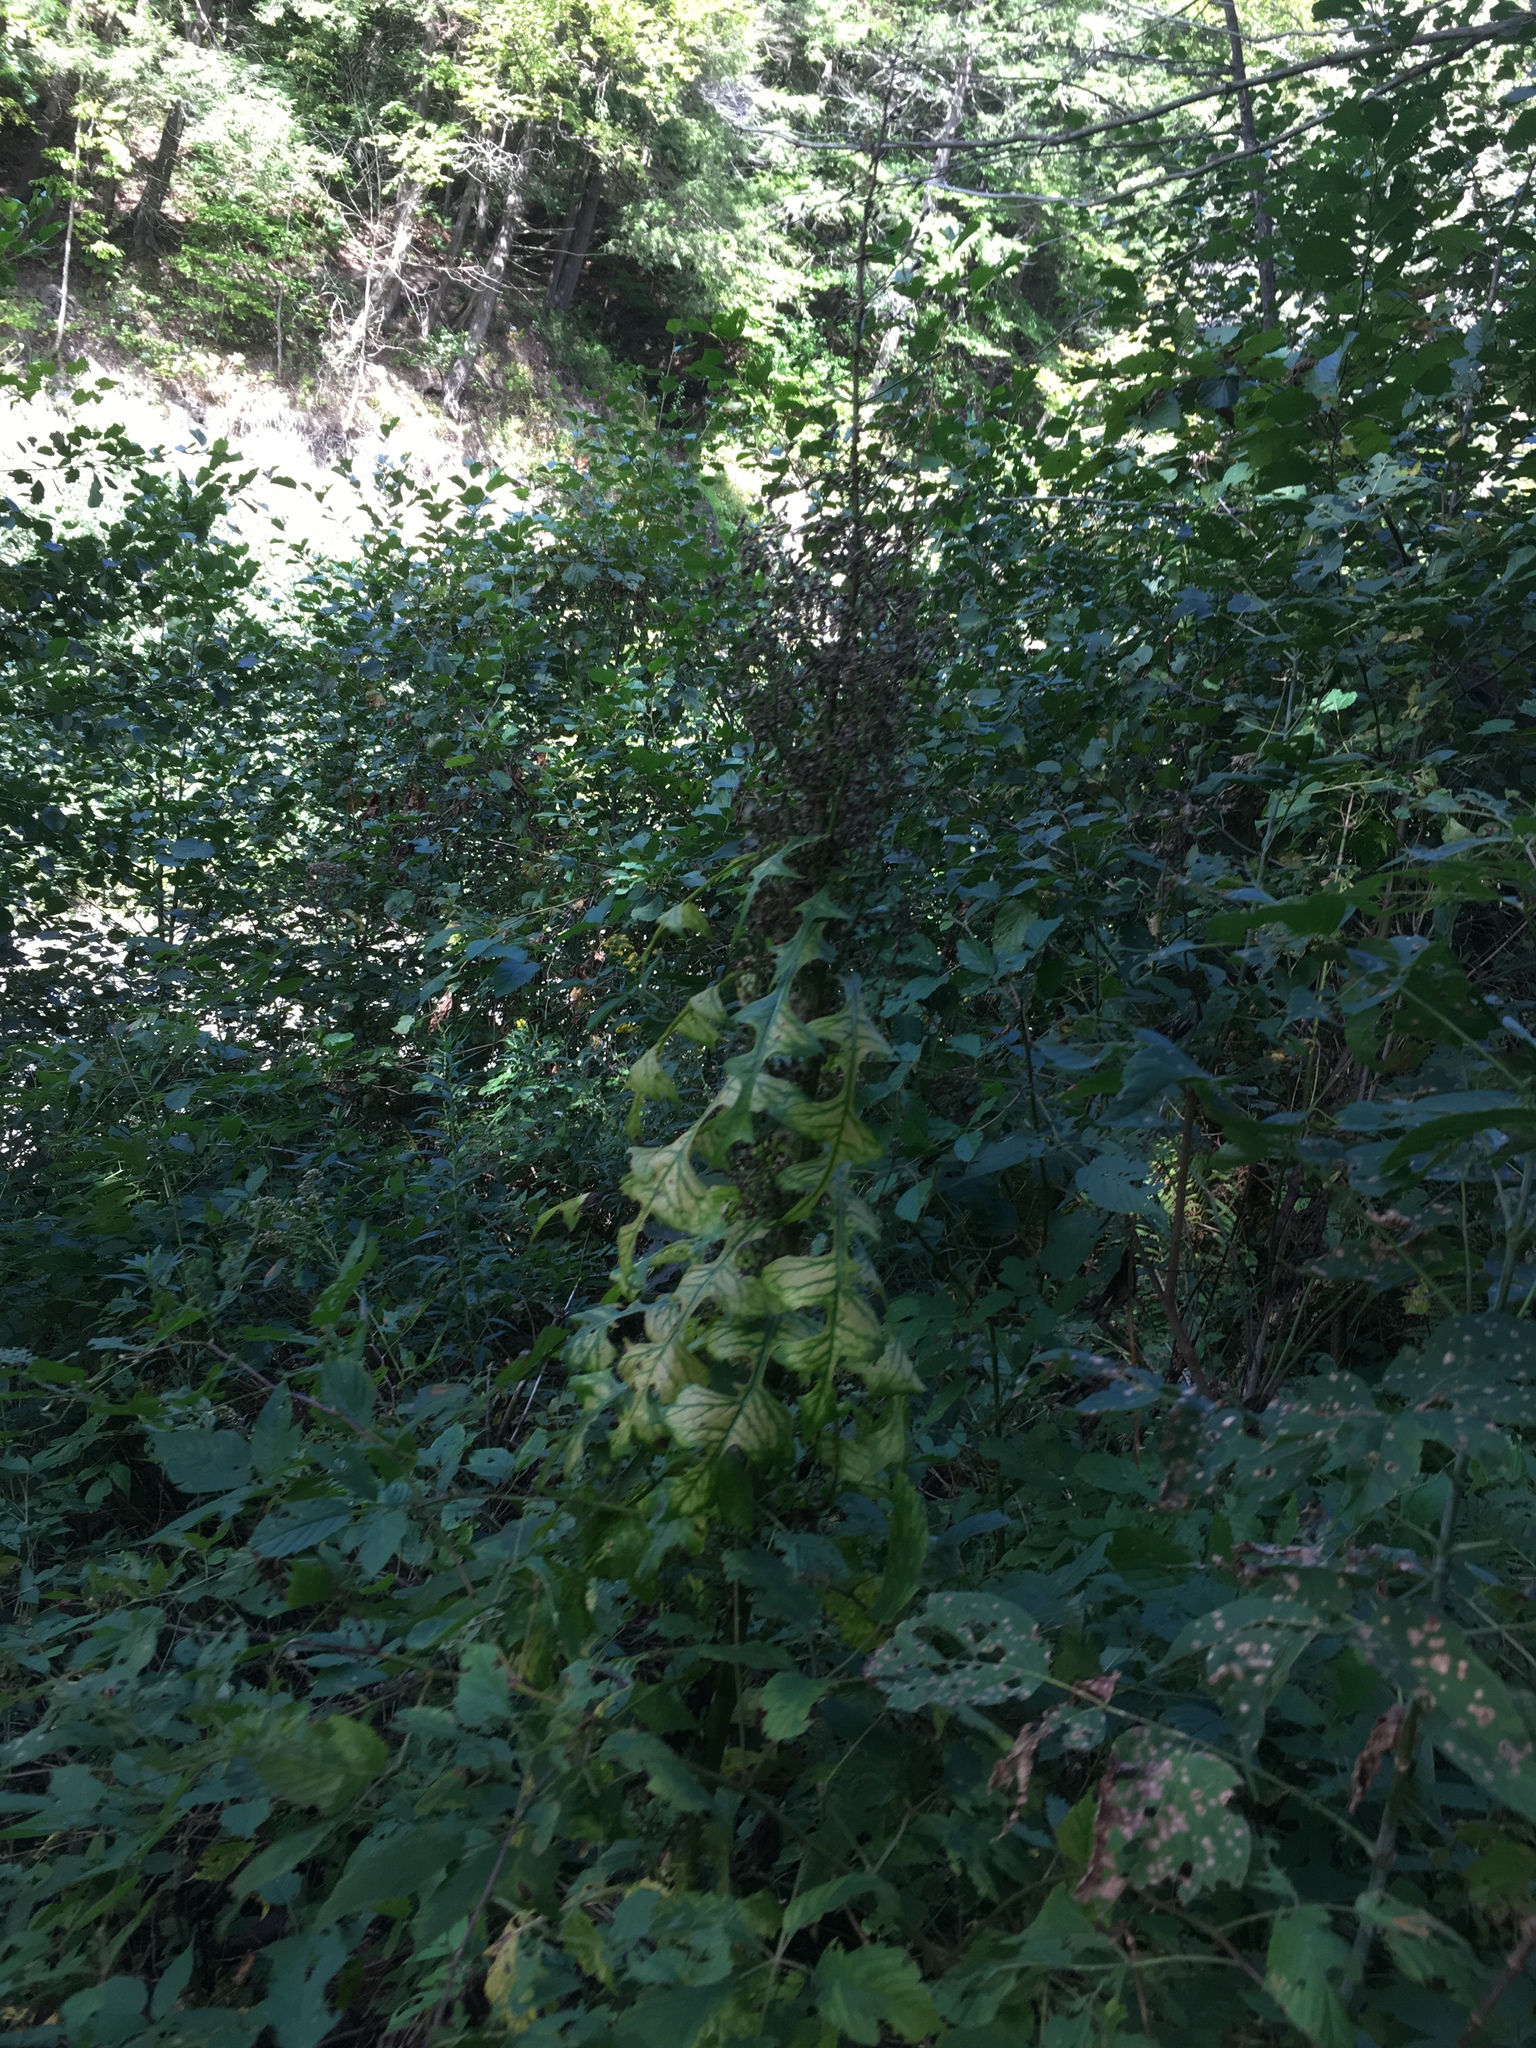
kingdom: Plantae
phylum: Tracheophyta
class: Magnoliopsida
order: Asterales
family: Asteraceae
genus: Lactuca
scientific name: Lactuca biennis
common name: Blue wood lettuce
